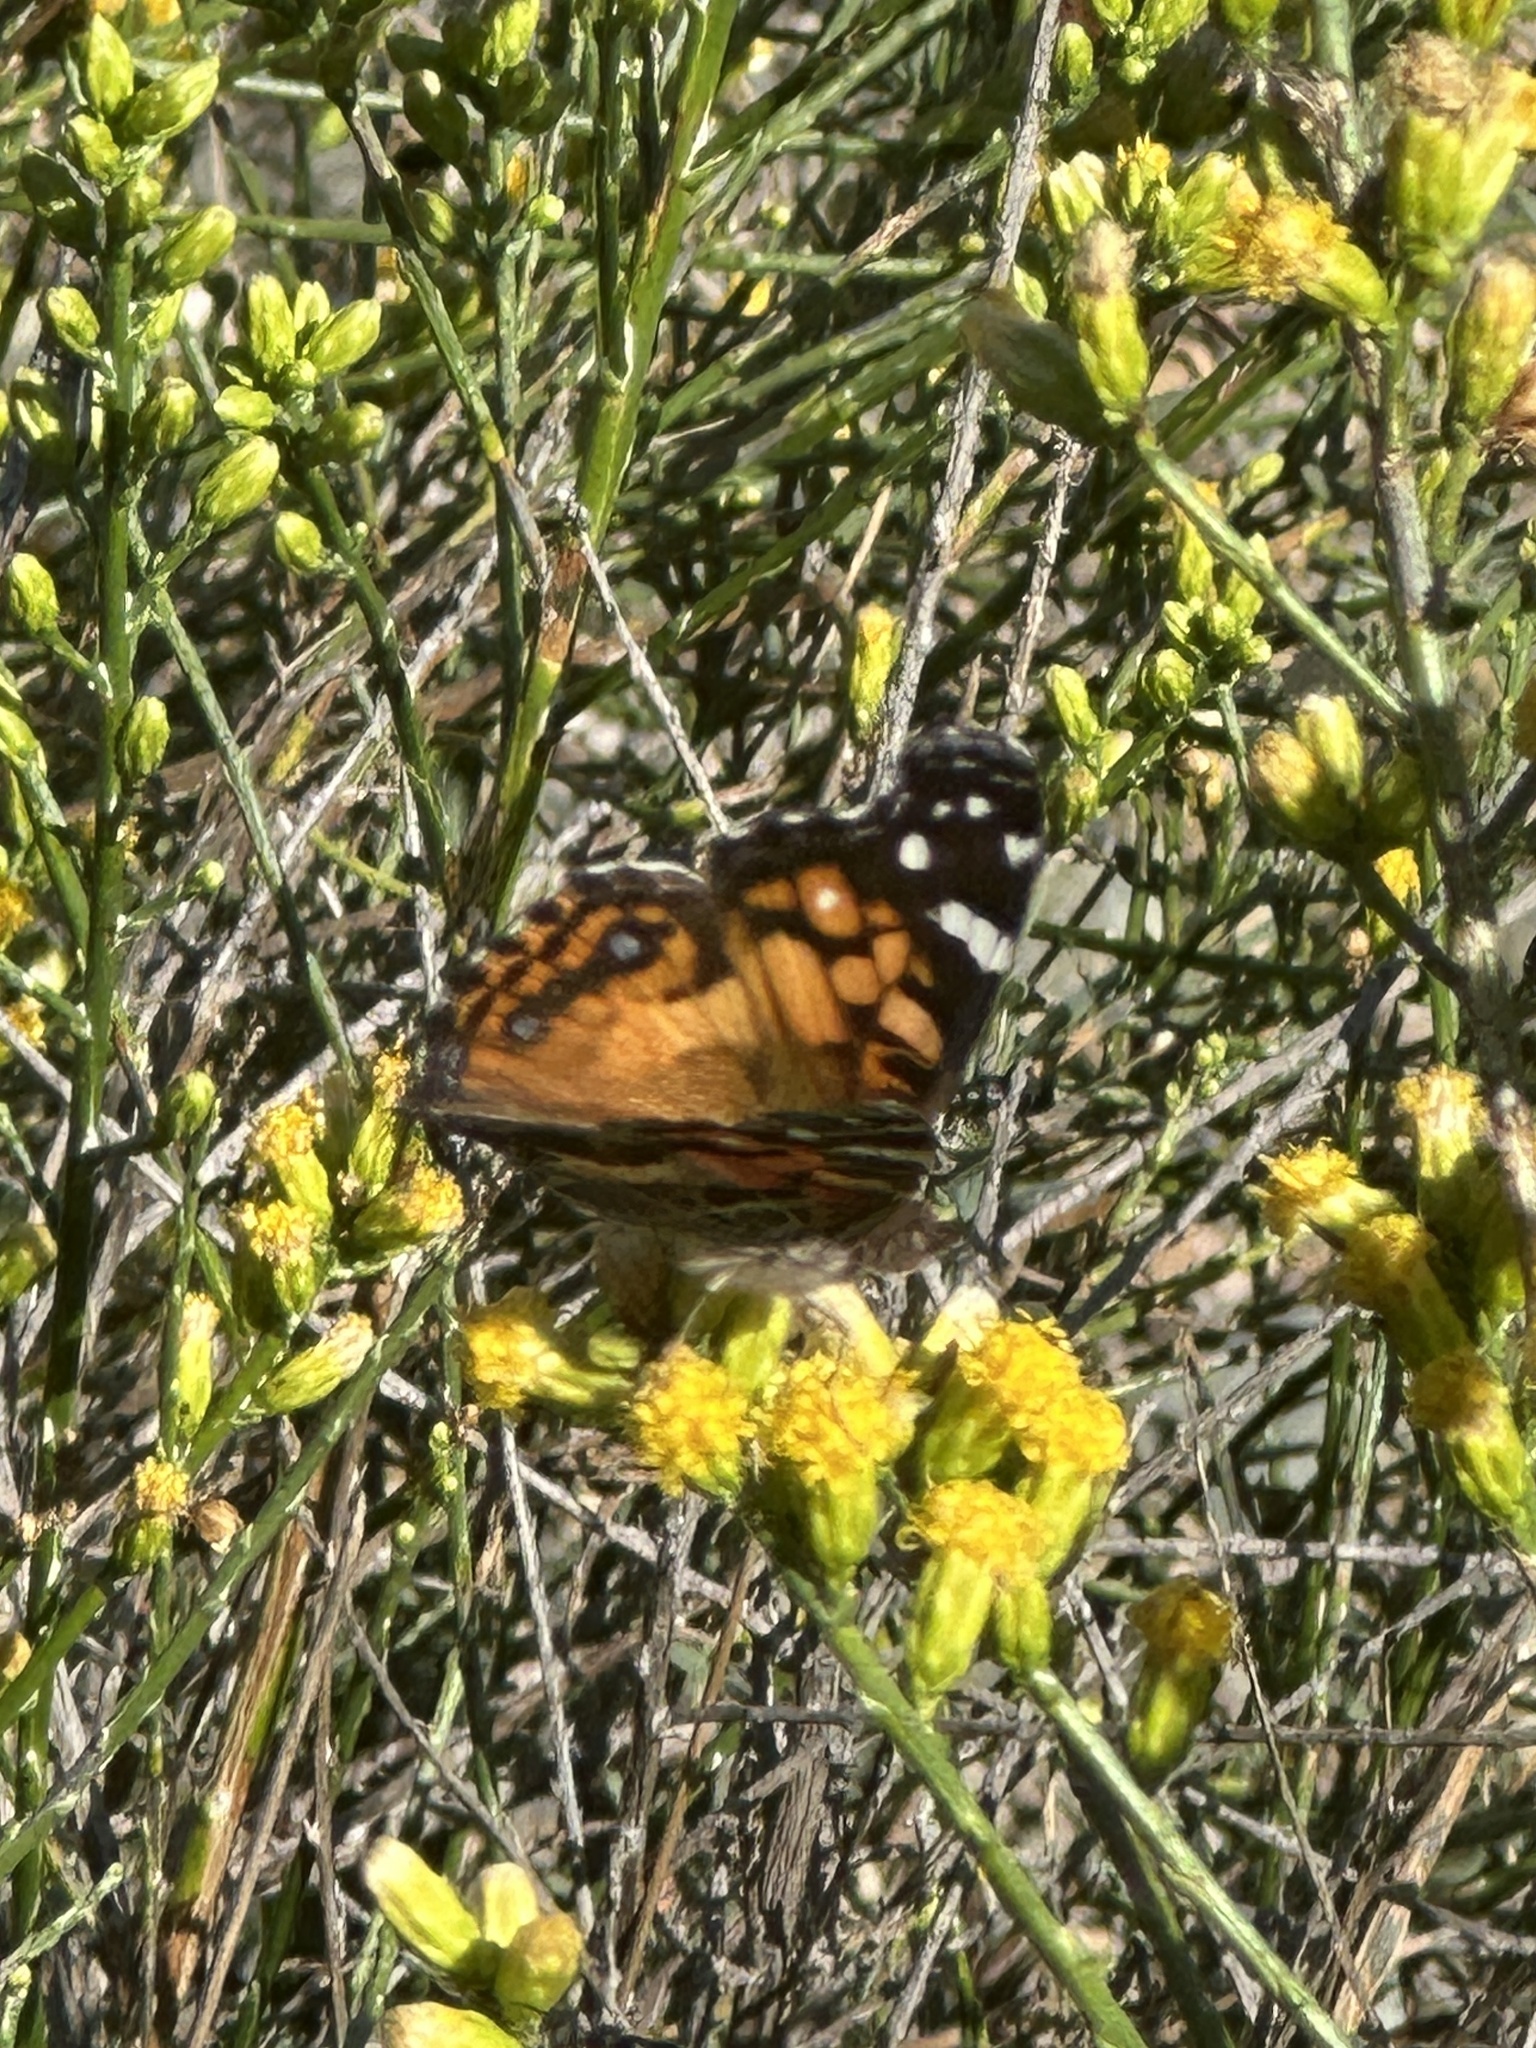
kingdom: Animalia
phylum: Arthropoda
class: Insecta
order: Lepidoptera
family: Nymphalidae
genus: Vanessa
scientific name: Vanessa virginiensis
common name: American lady
